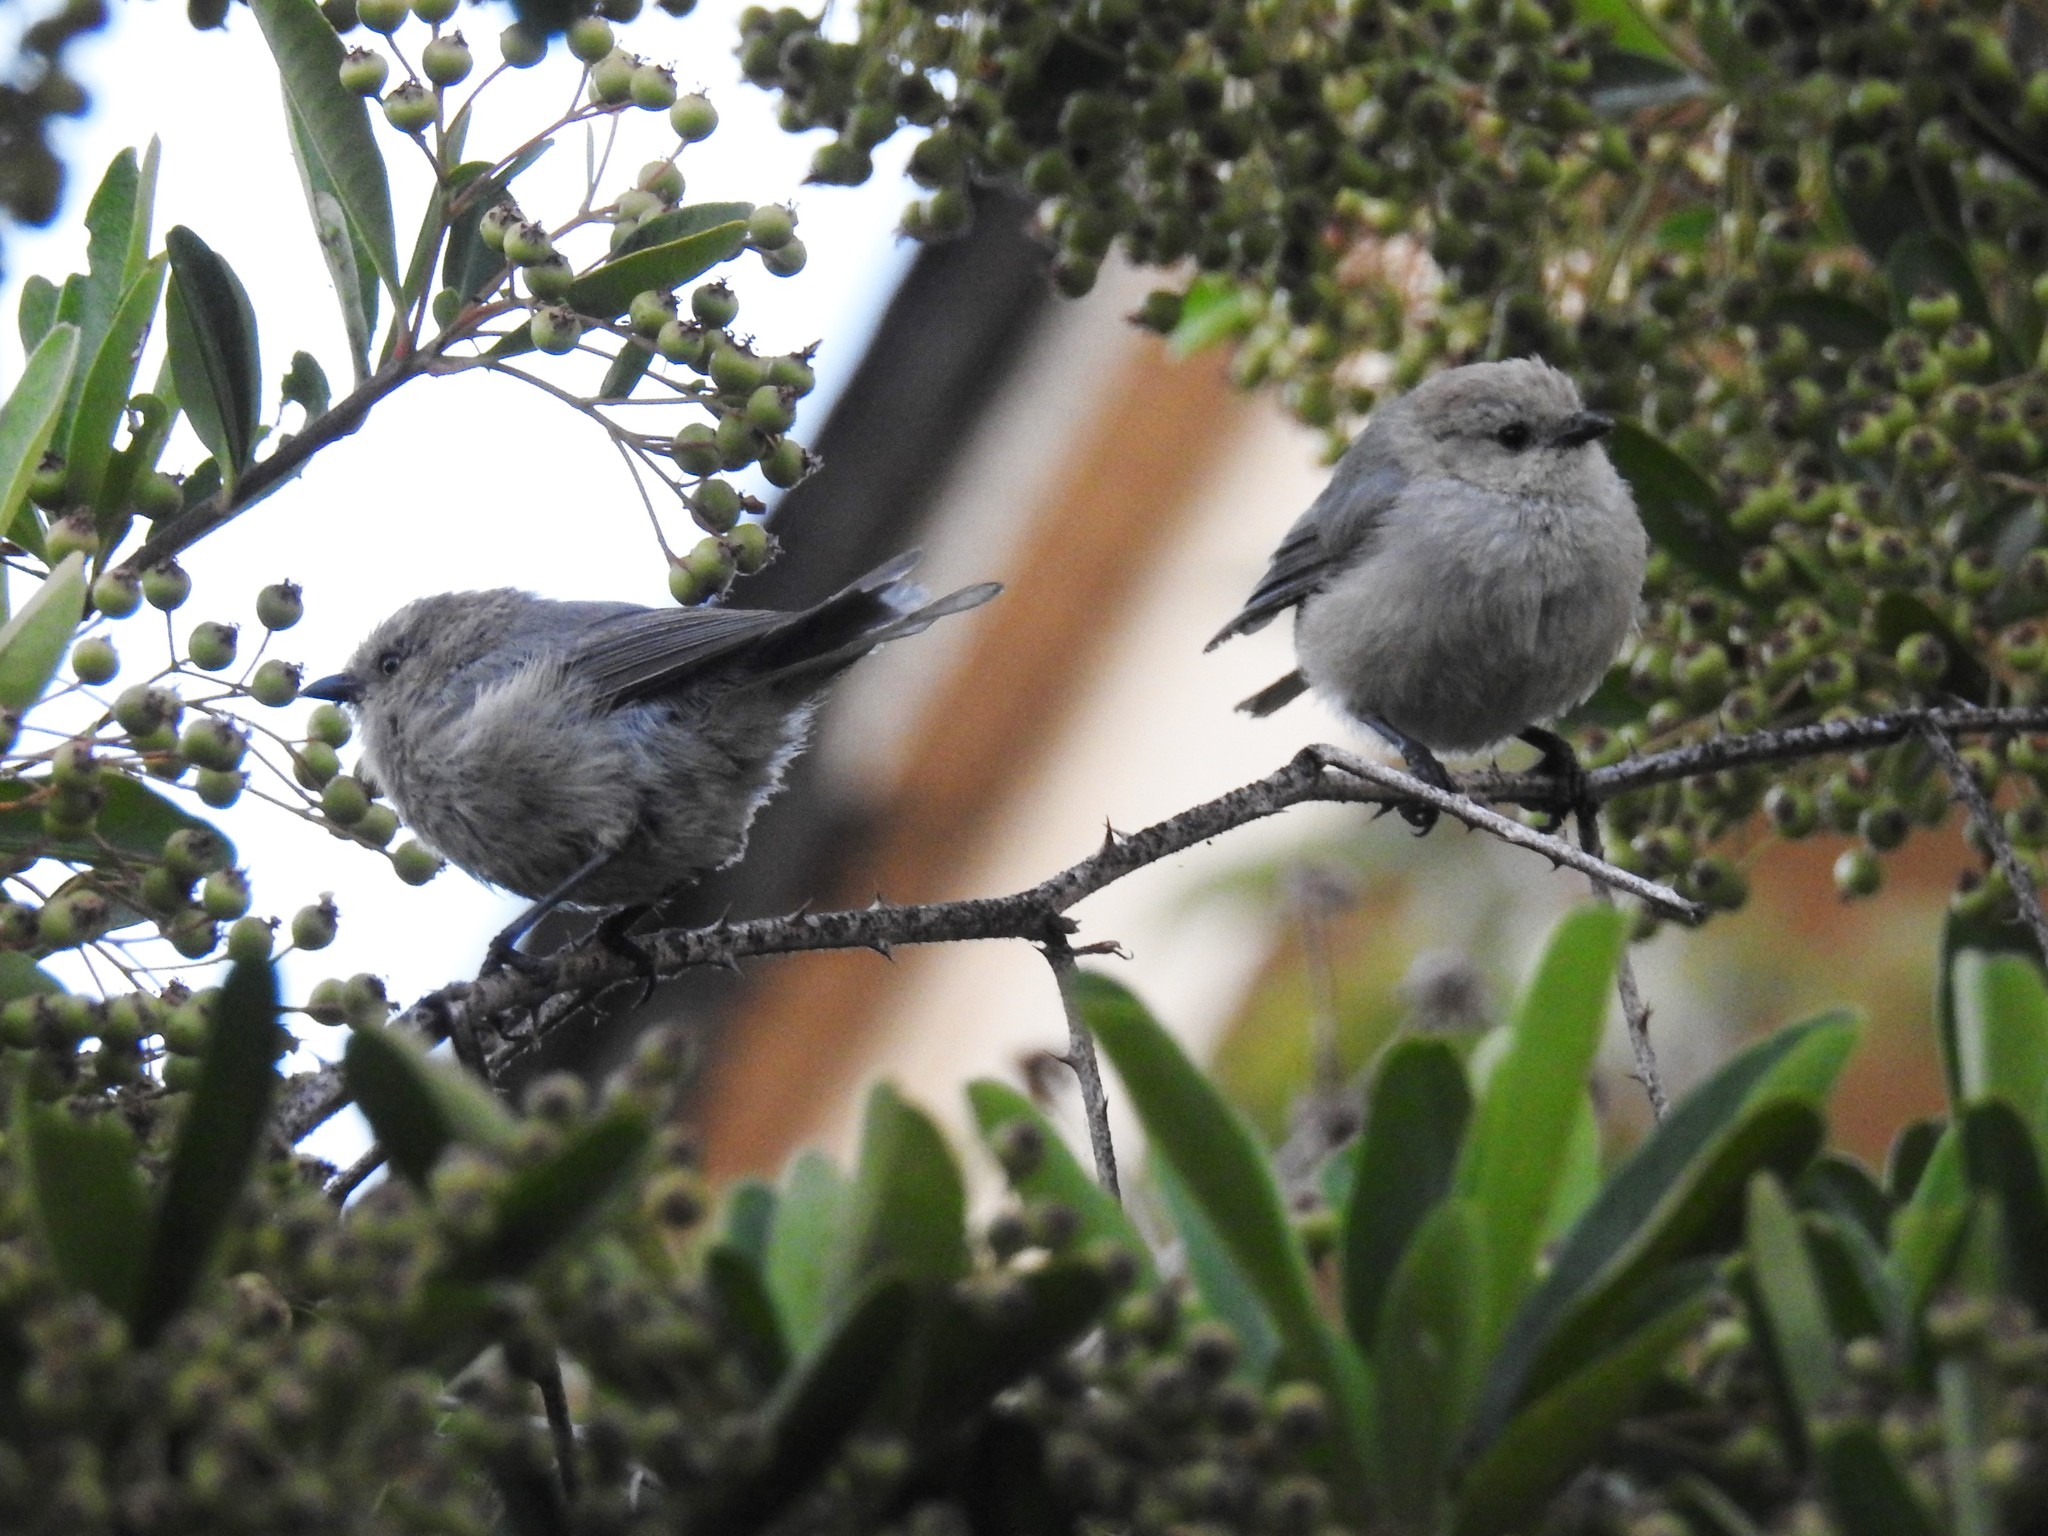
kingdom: Animalia
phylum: Chordata
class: Aves
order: Passeriformes
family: Aegithalidae
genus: Psaltriparus
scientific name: Psaltriparus minimus
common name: American bushtit
